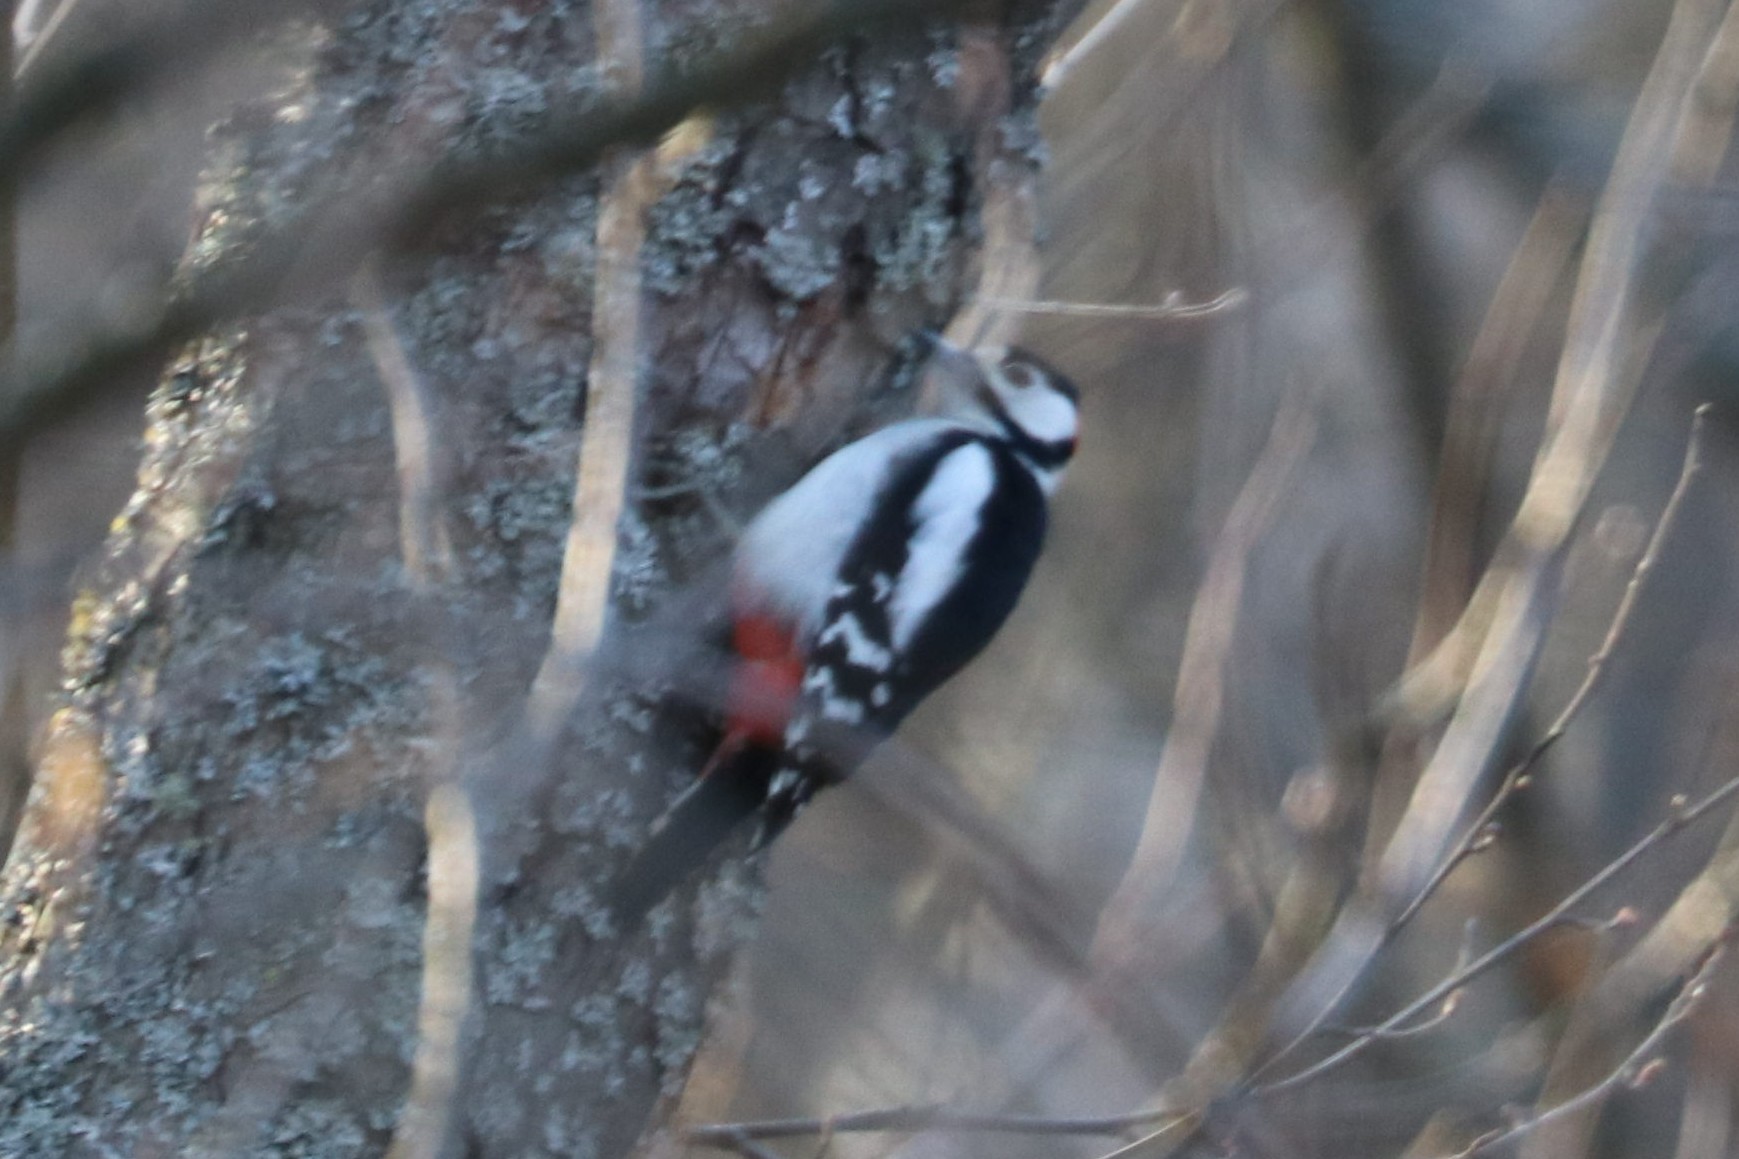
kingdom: Animalia
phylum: Chordata
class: Aves
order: Piciformes
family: Picidae
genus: Dendrocopos
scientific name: Dendrocopos major
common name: Great spotted woodpecker
